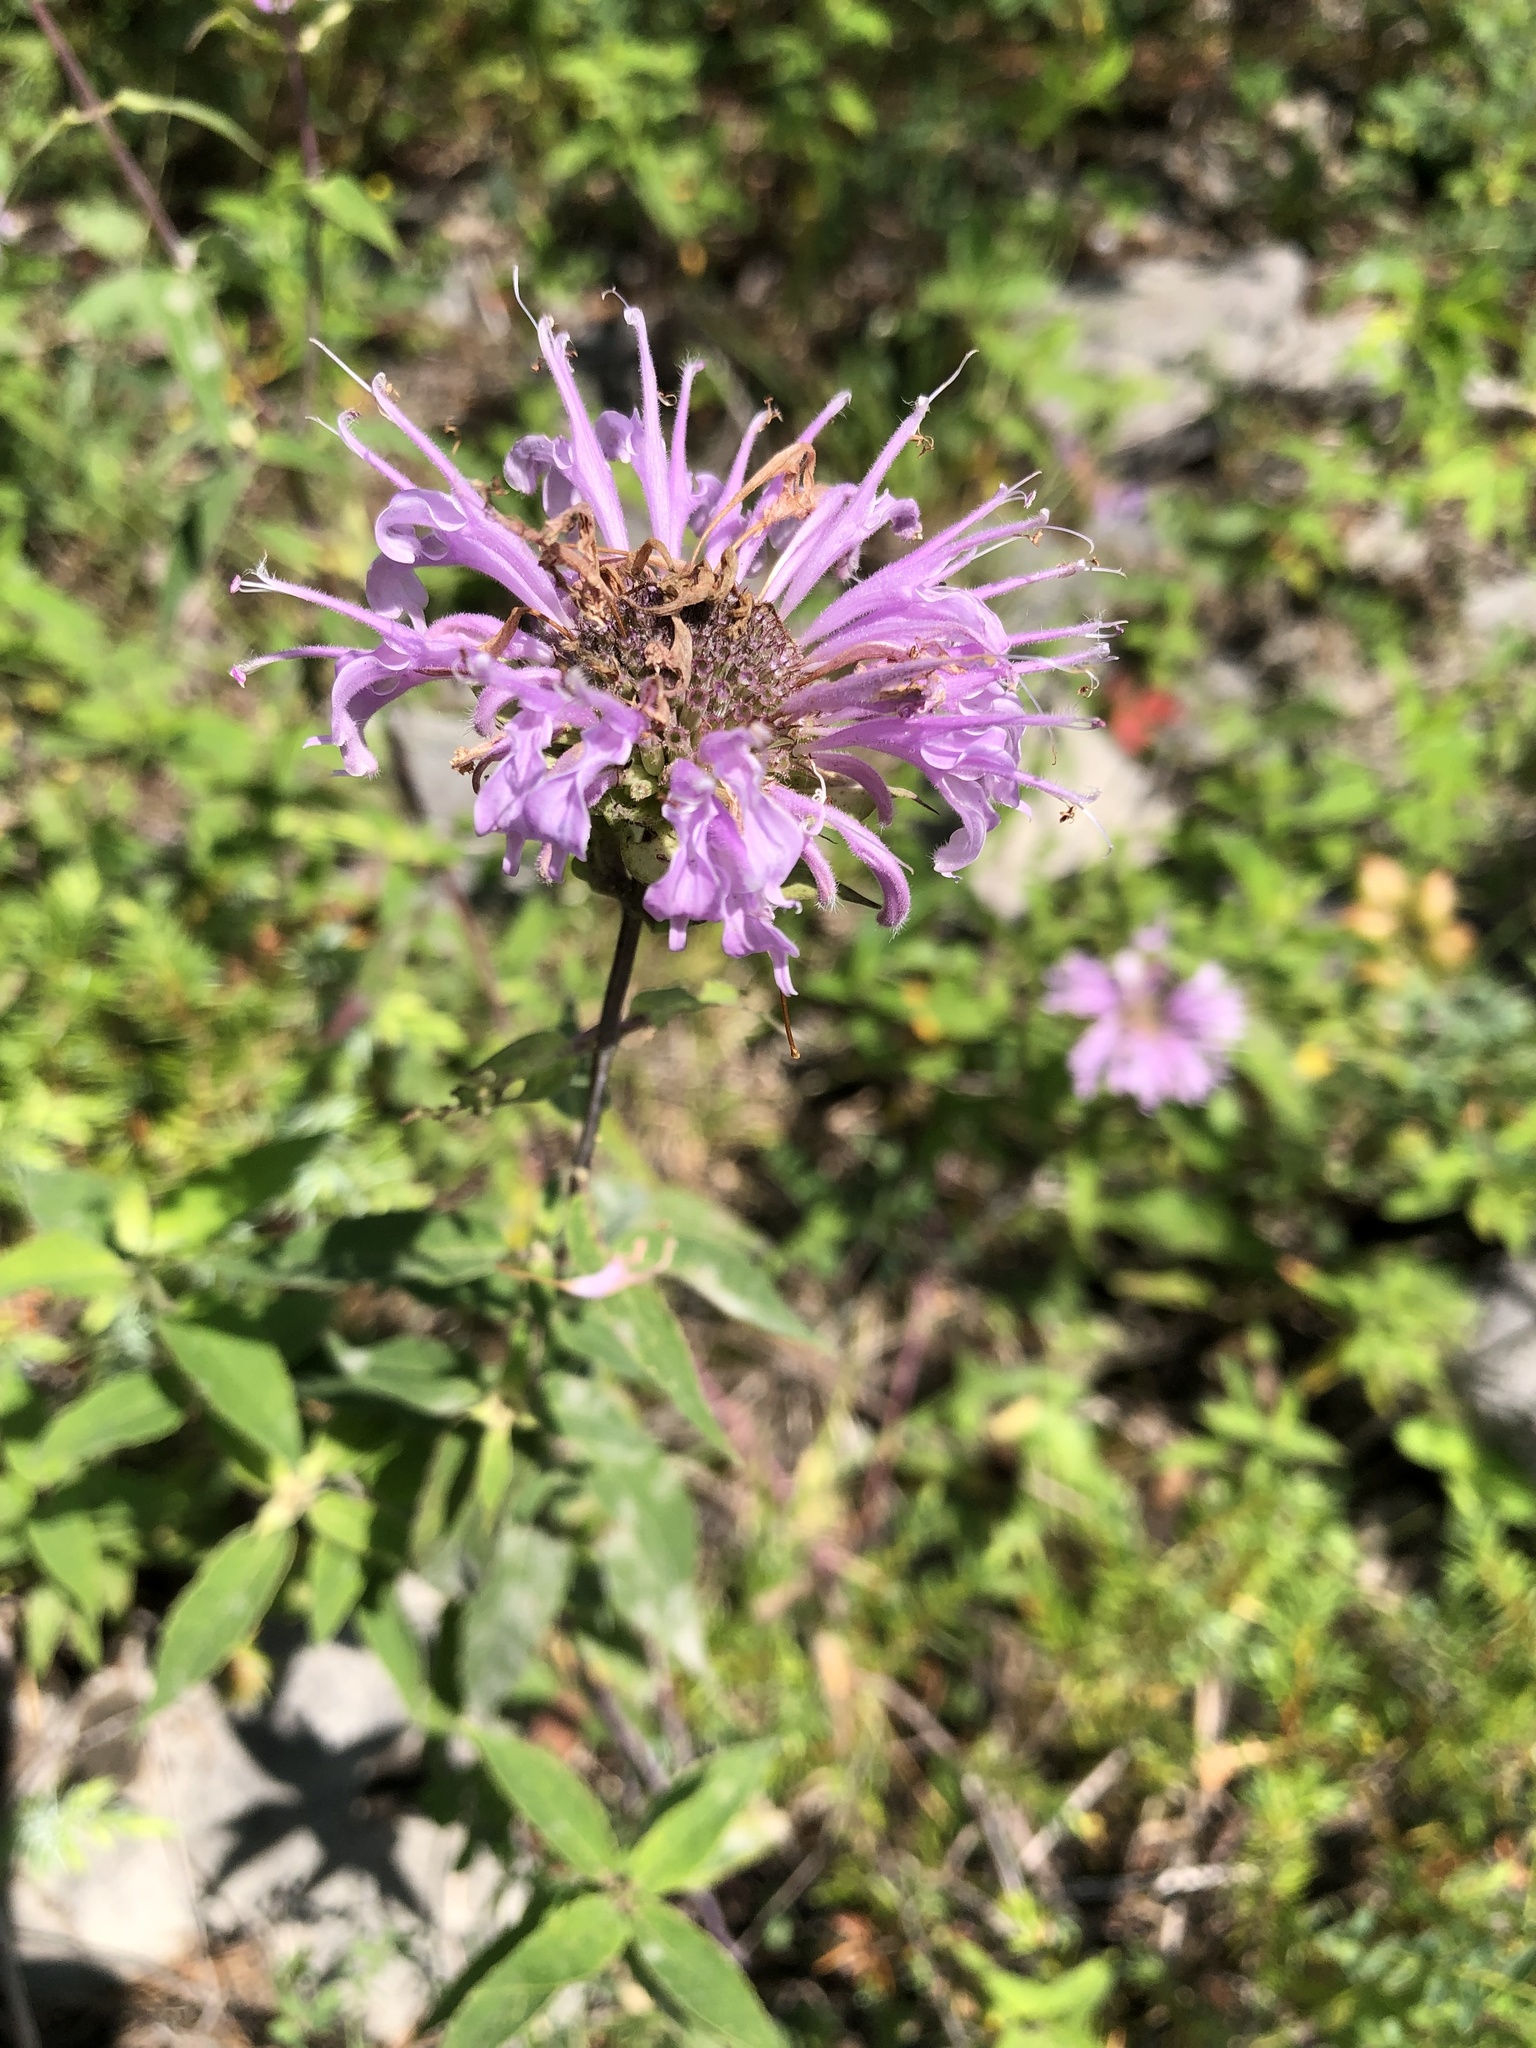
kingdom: Plantae
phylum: Tracheophyta
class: Magnoliopsida
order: Lamiales
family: Lamiaceae
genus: Monarda
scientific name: Monarda fistulosa
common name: Purple beebalm
